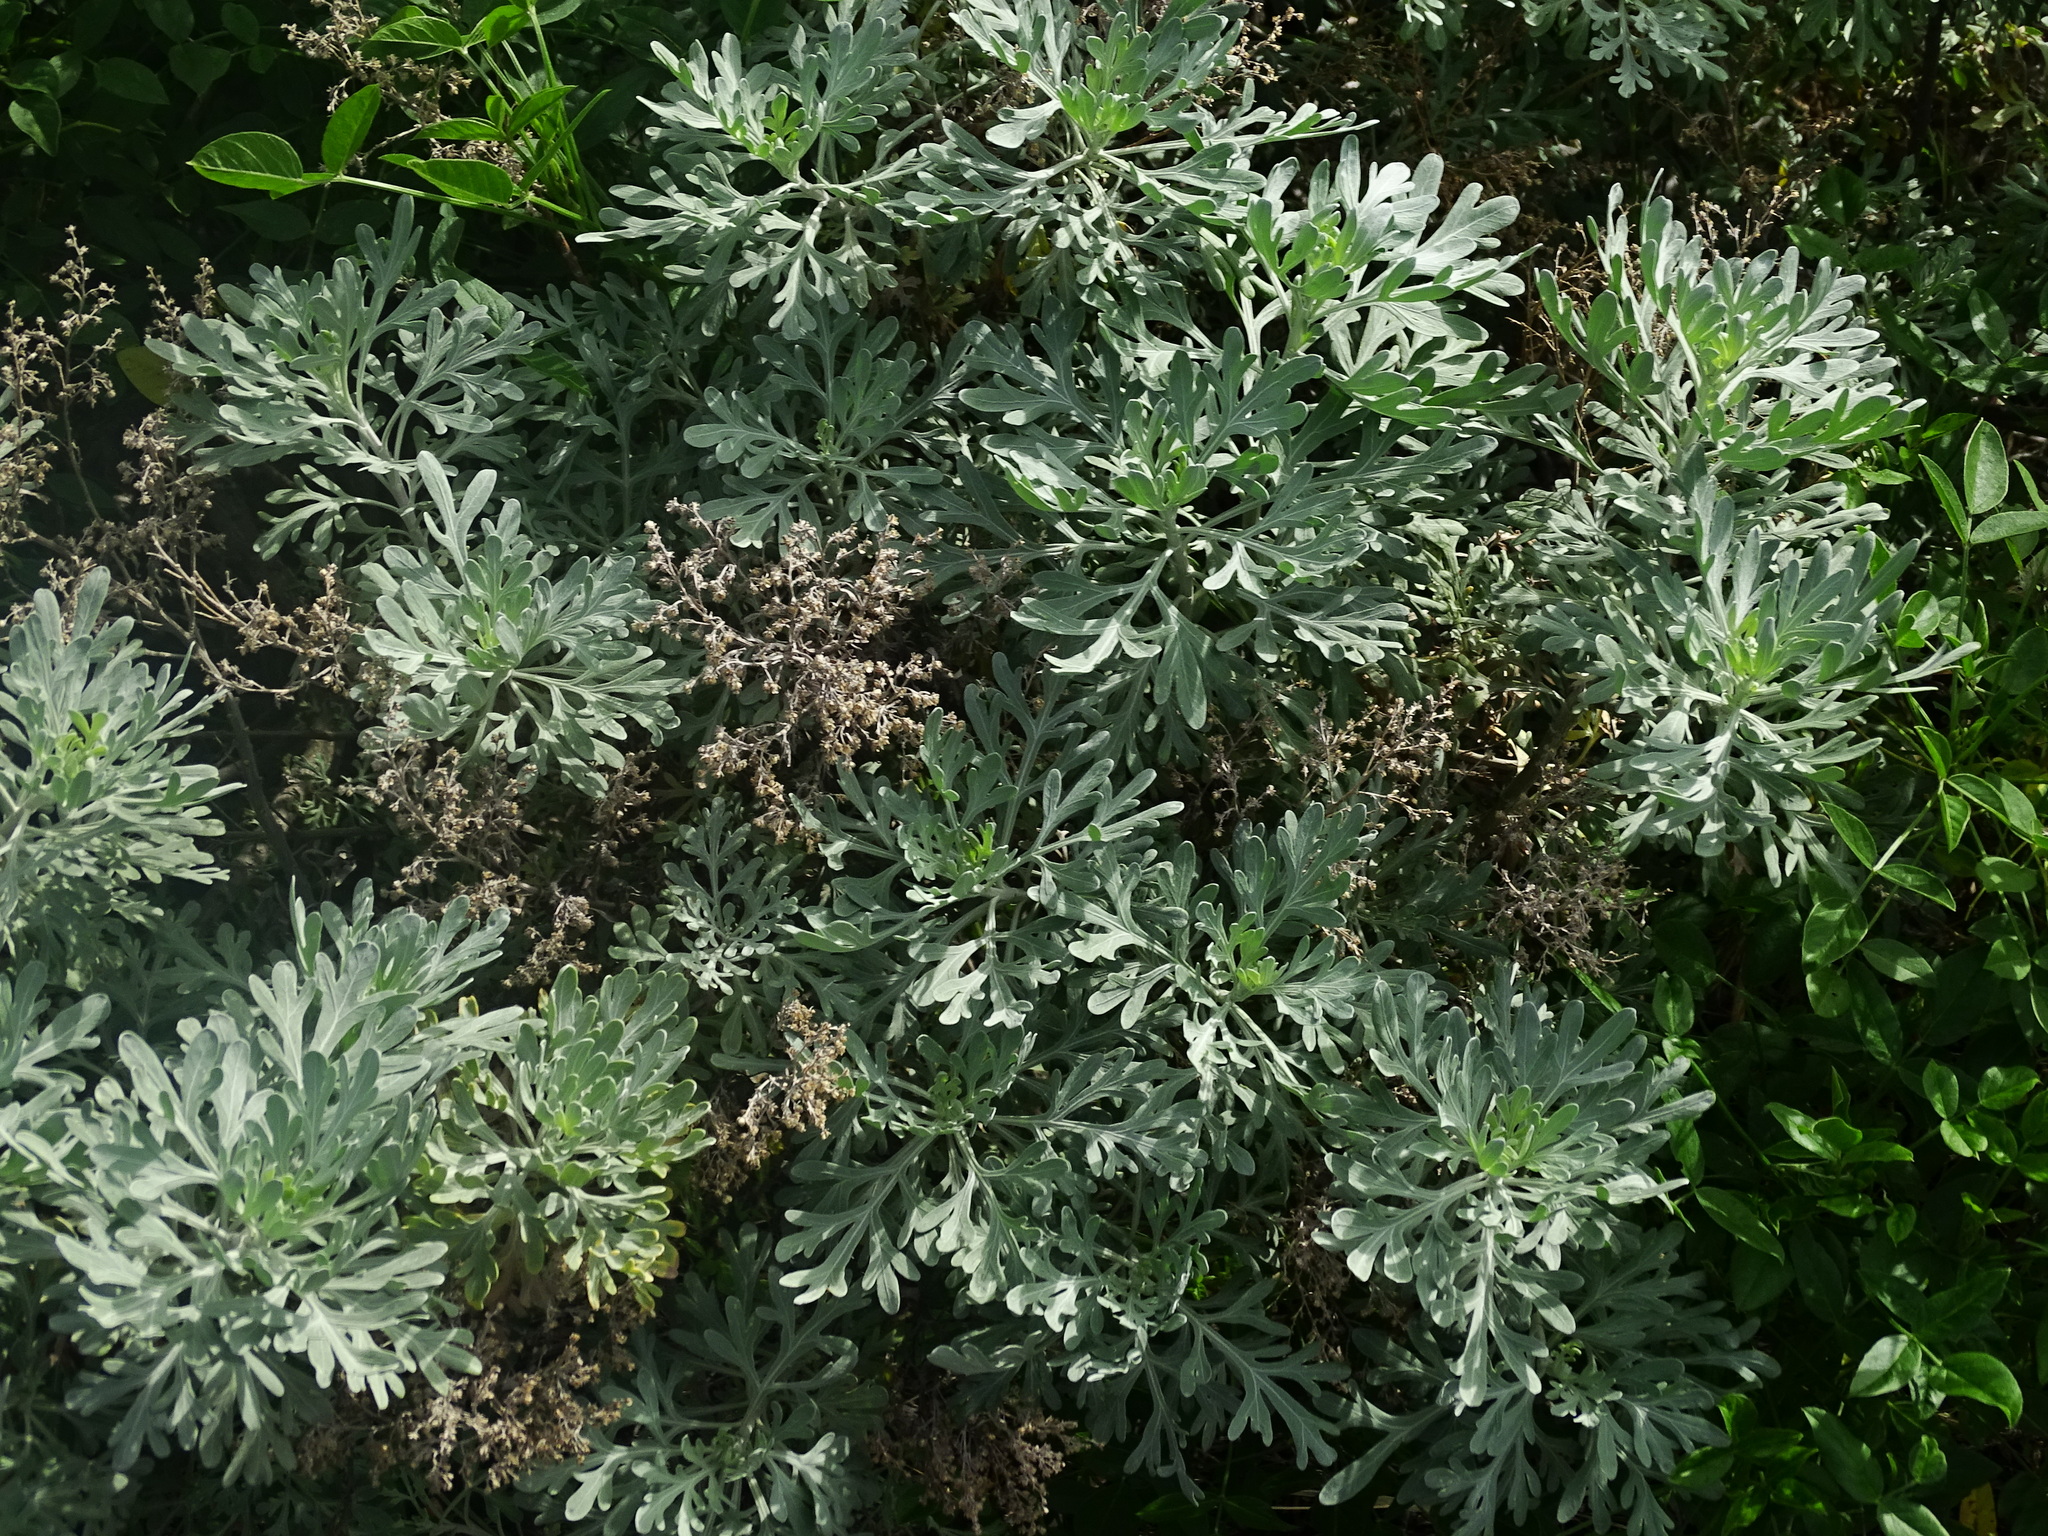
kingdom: Plantae
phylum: Tracheophyta
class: Magnoliopsida
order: Asterales
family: Asteraceae
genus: Artemisia
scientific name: Artemisia thuscula
